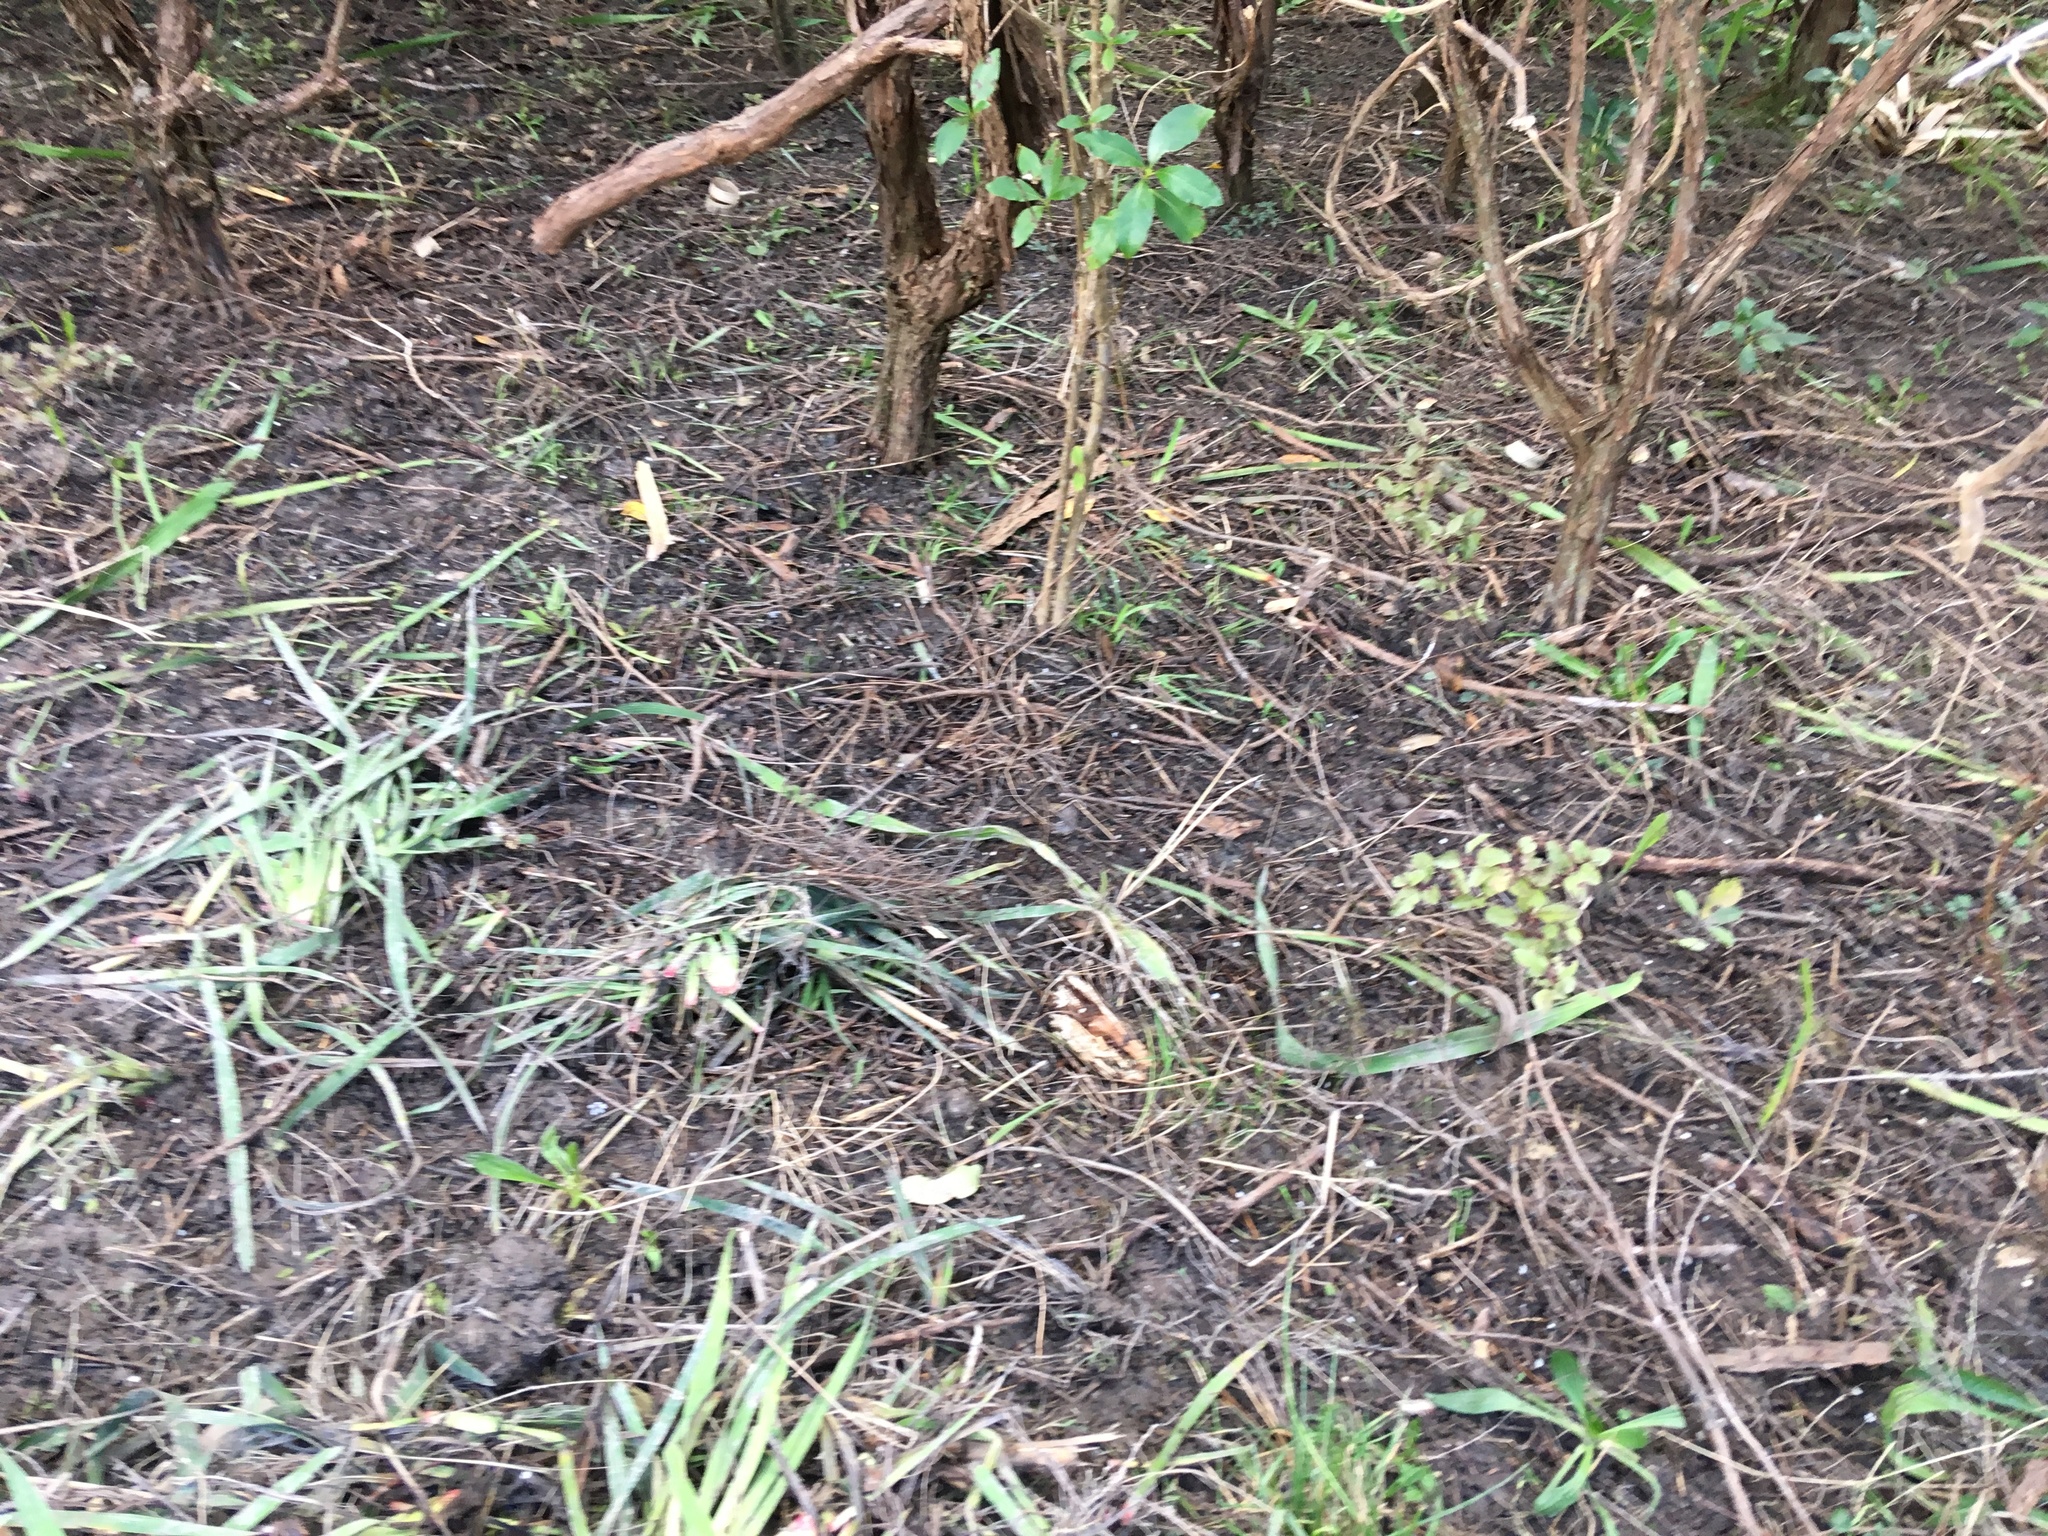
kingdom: Plantae
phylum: Tracheophyta
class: Magnoliopsida
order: Ericales
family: Primulaceae
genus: Myrsine
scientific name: Myrsine australis
